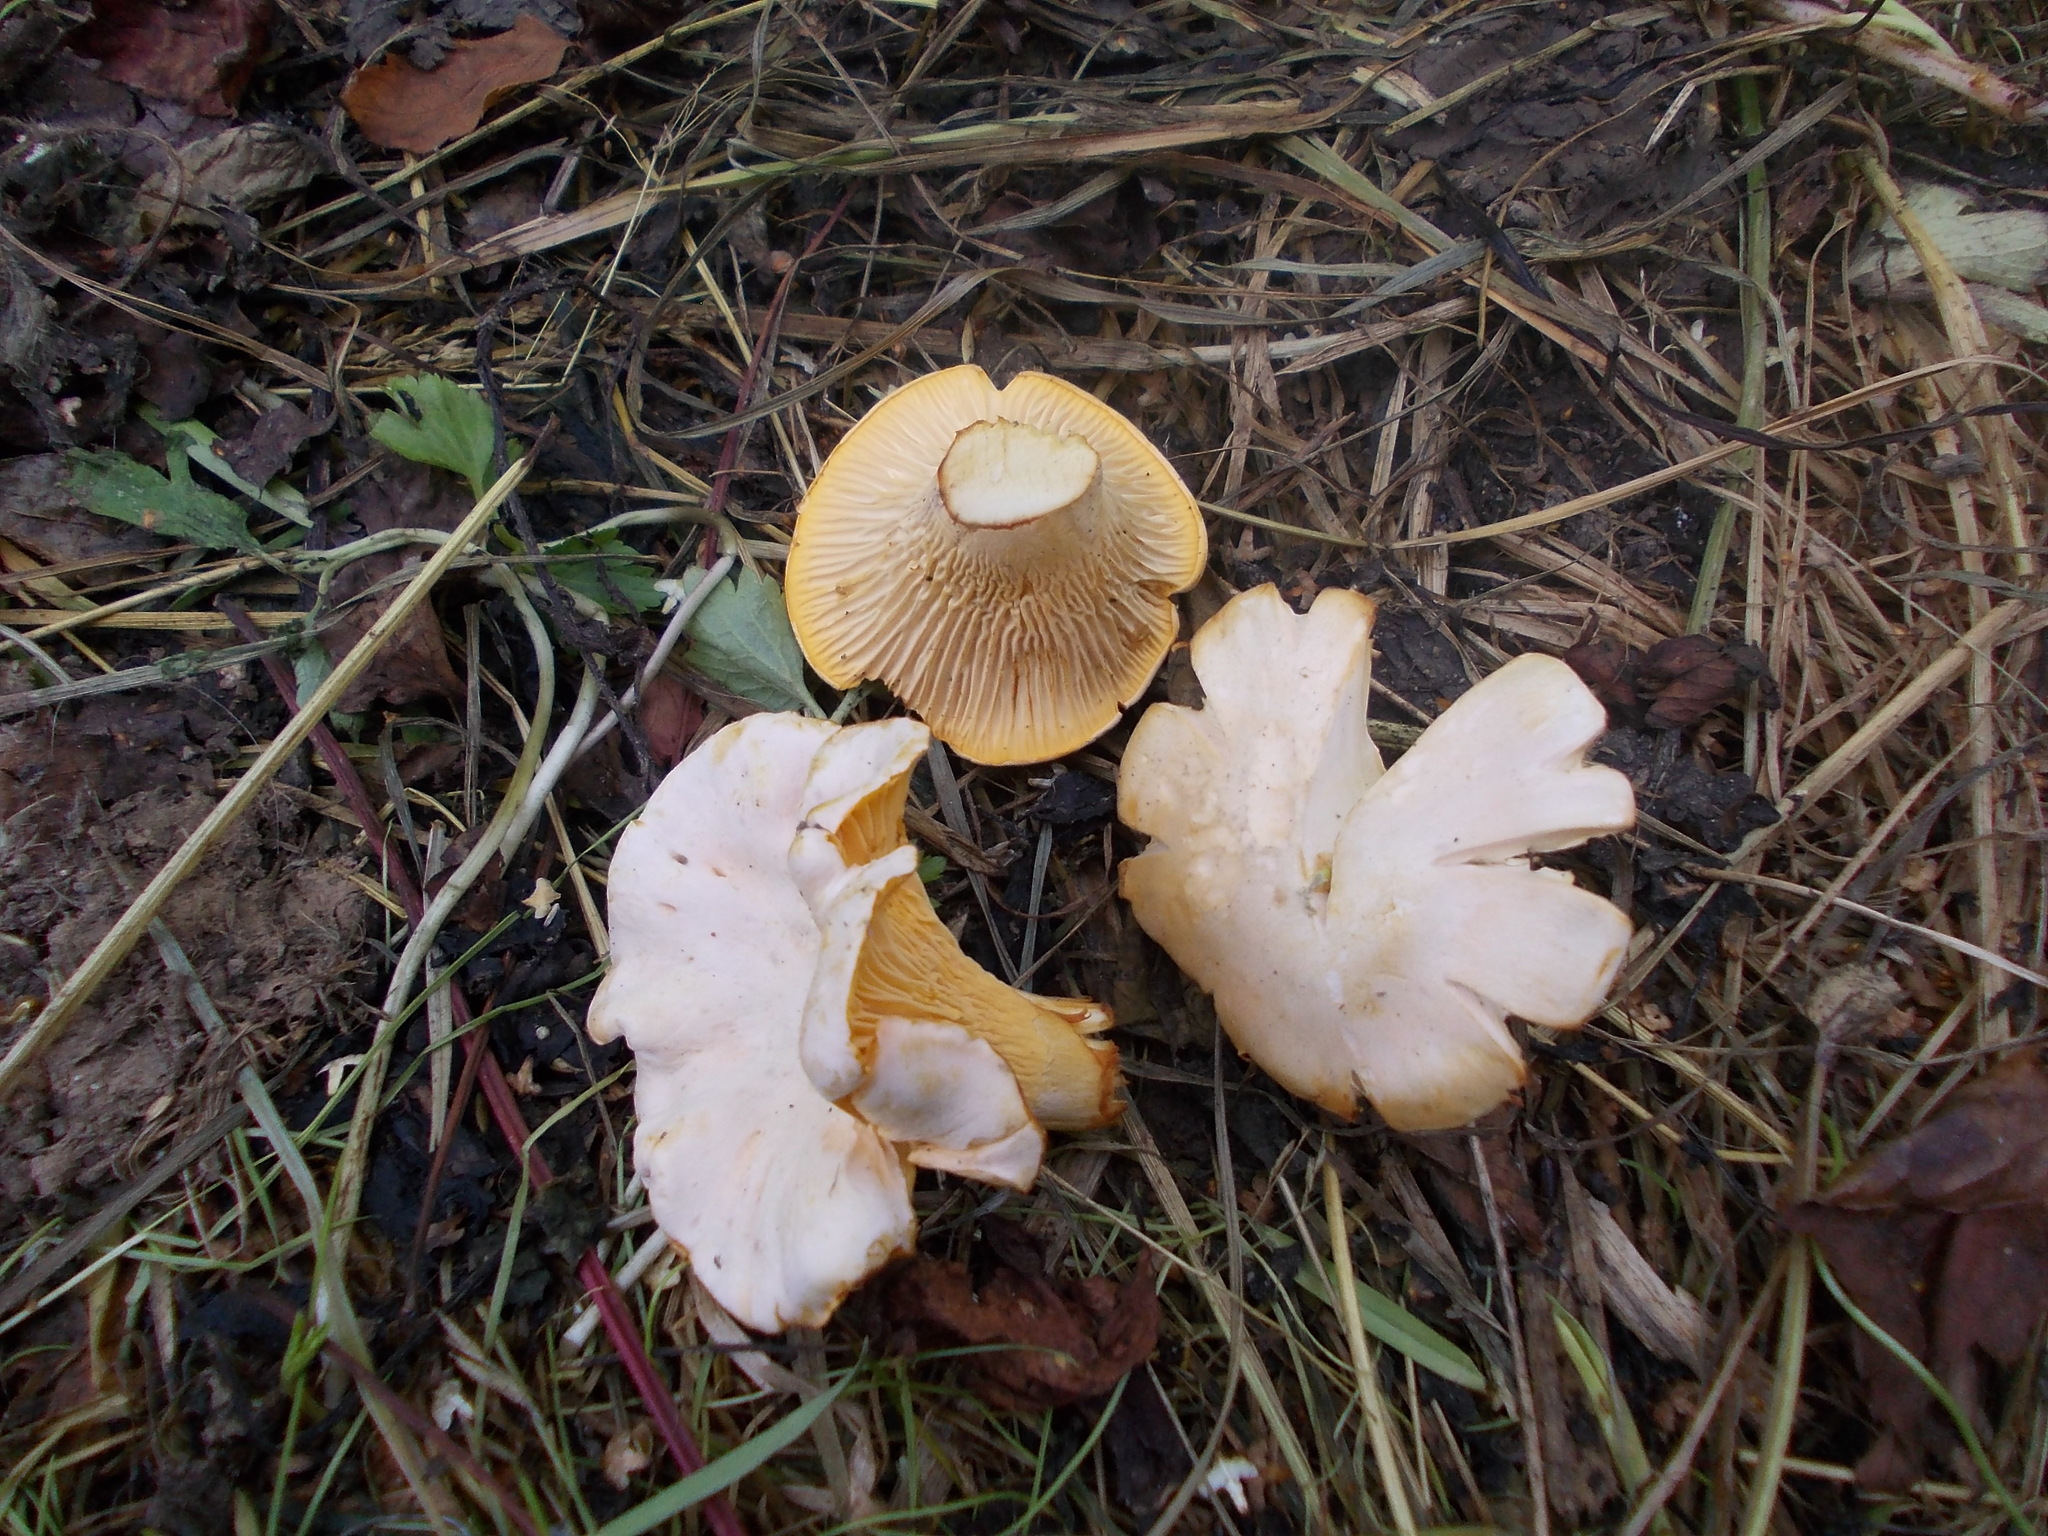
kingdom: Fungi
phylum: Basidiomycota
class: Agaricomycetes
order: Cantharellales
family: Hydnaceae
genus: Cantharellus
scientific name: Cantharellus pallens
